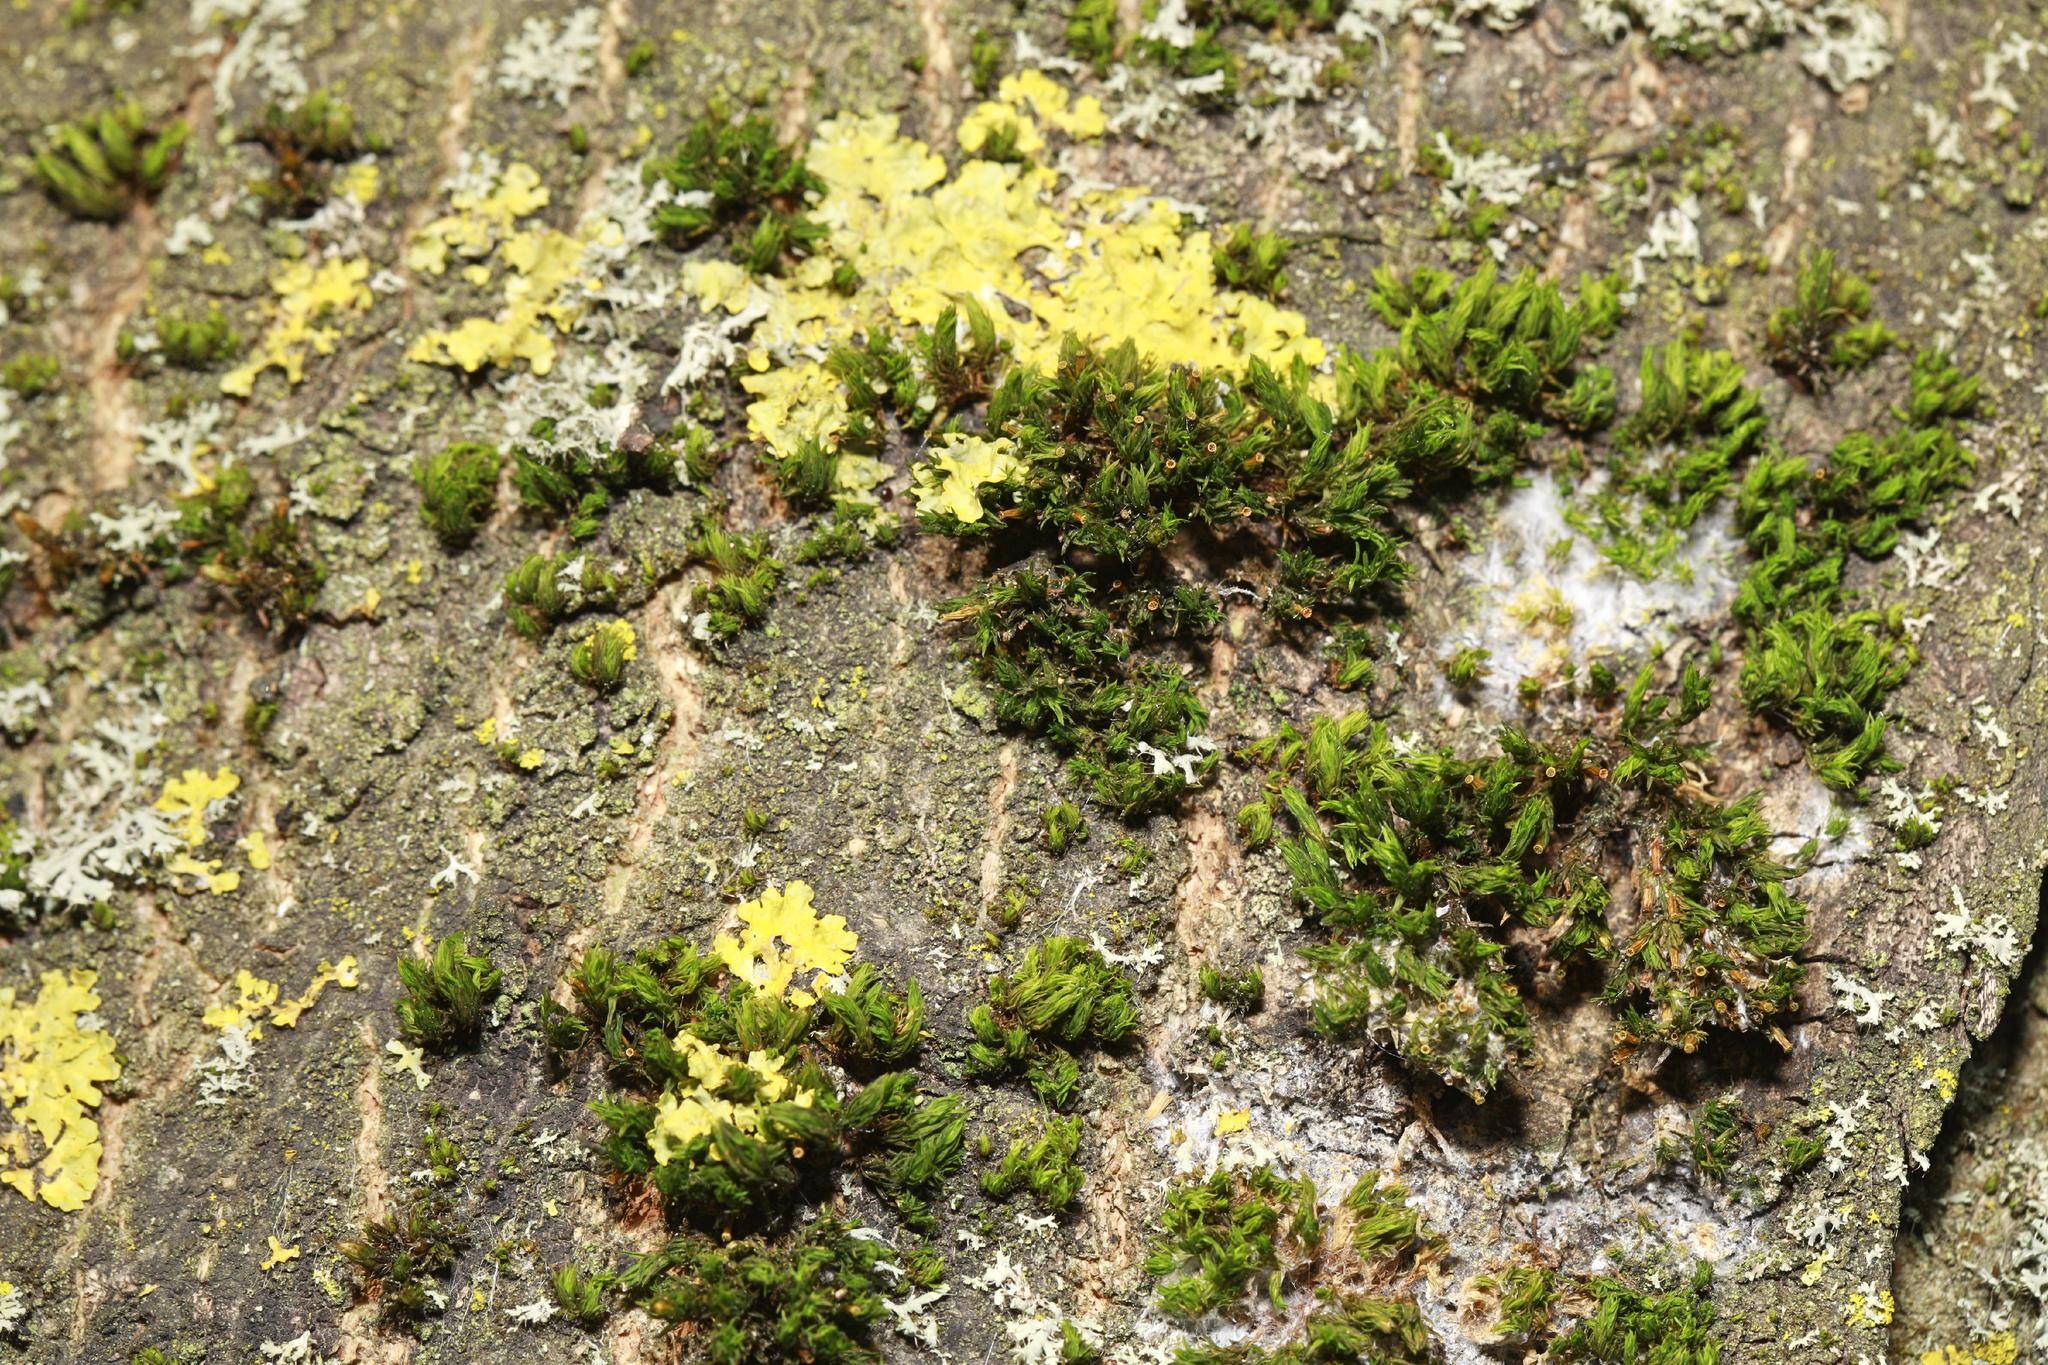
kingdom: Plantae
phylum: Bryophyta
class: Bryopsida
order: Orthotrichales
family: Orthotrichaceae
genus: Lewinskya
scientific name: Lewinskya affinis
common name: Wood bristle-moss
